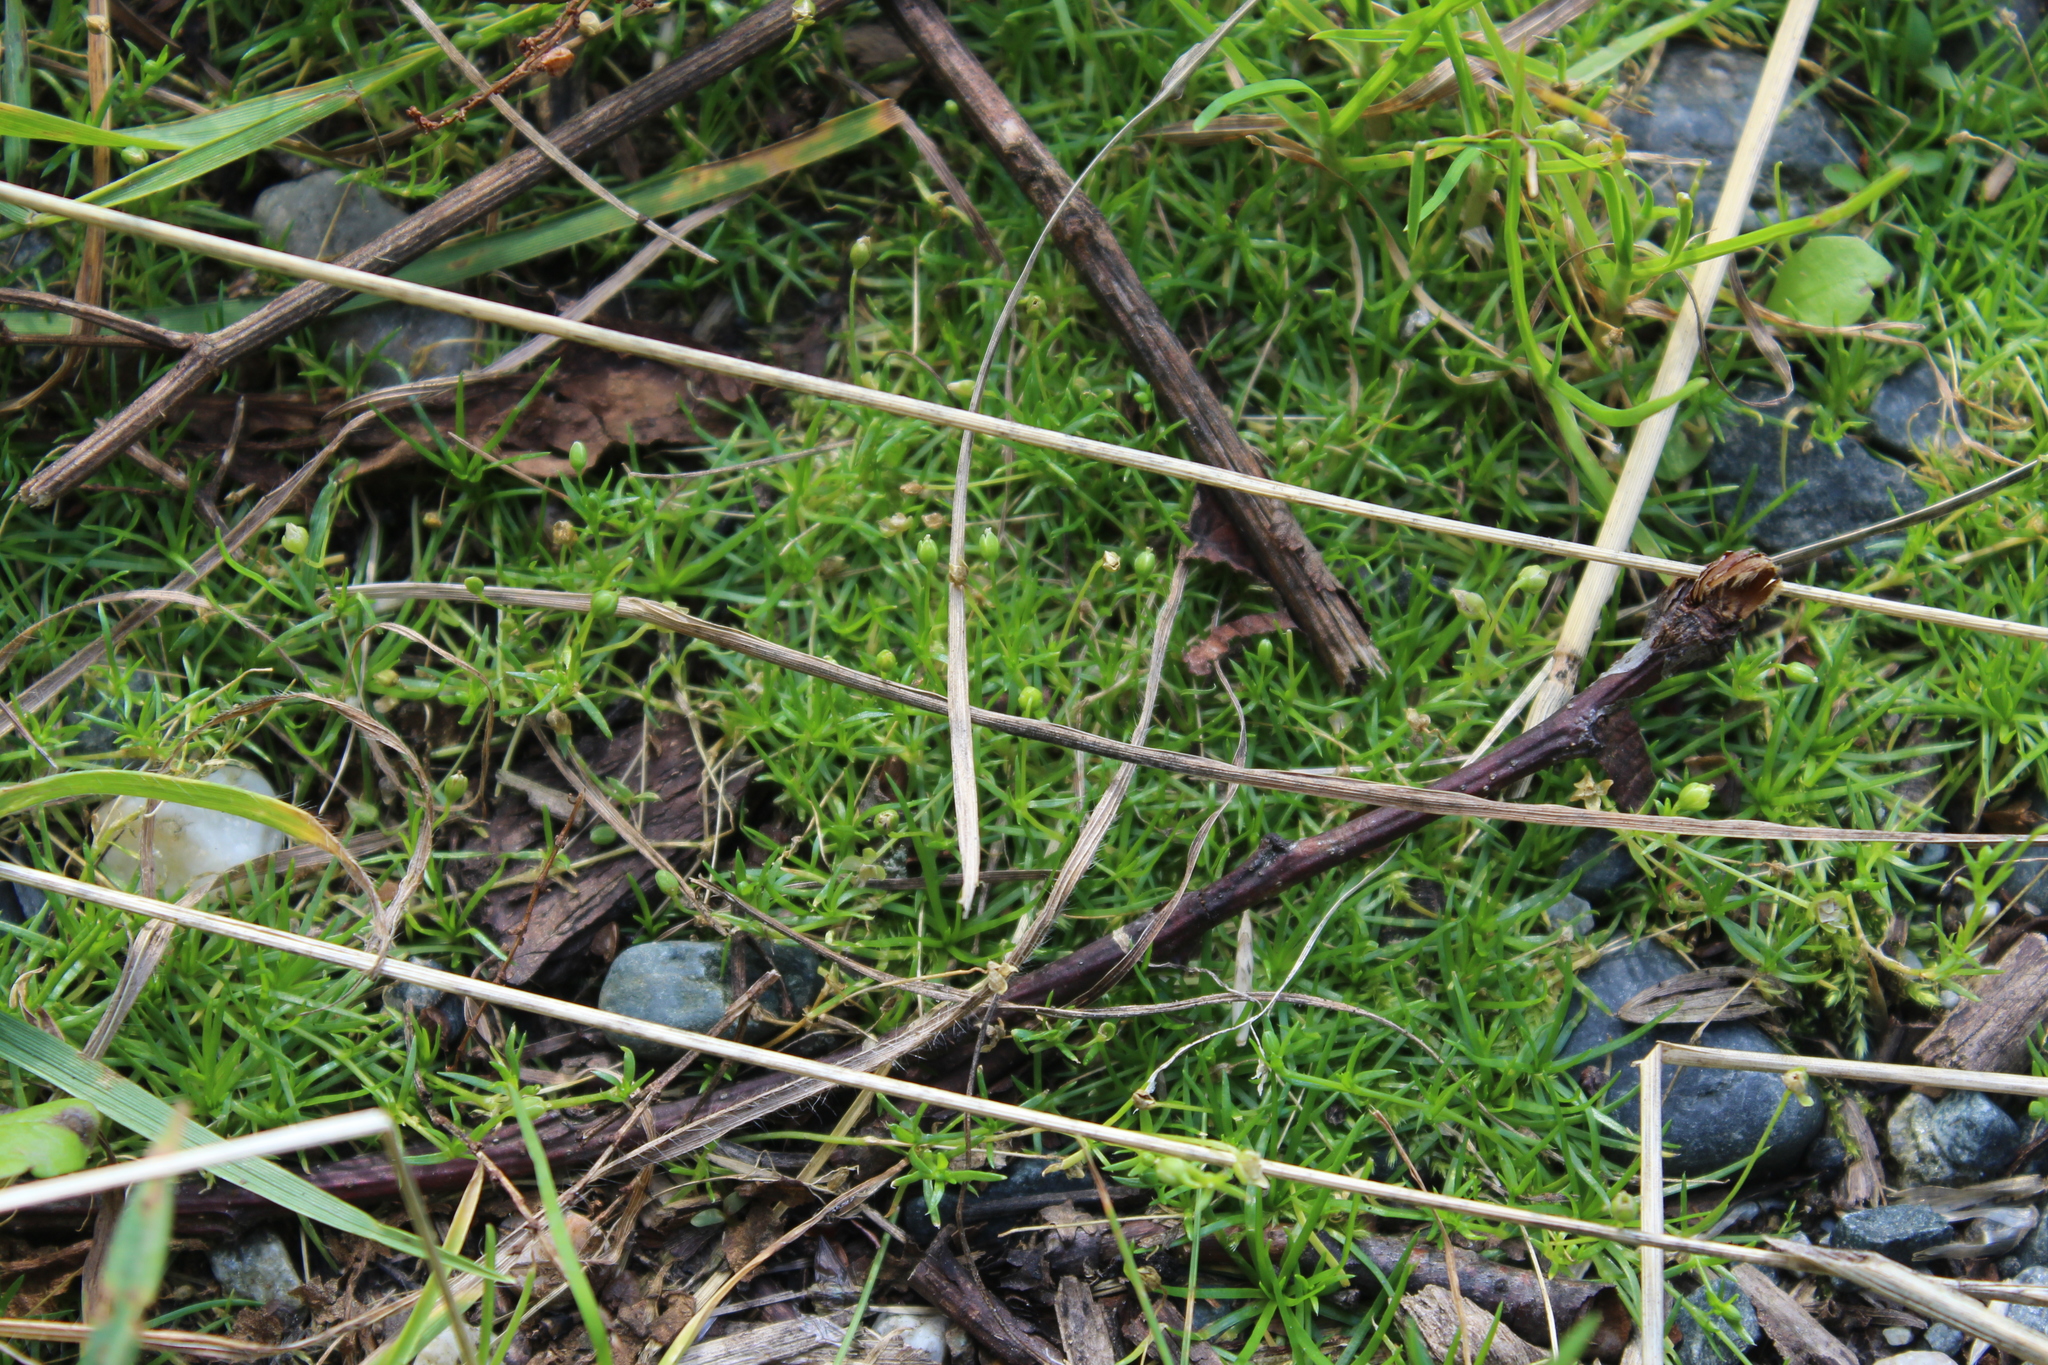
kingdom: Plantae
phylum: Tracheophyta
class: Magnoliopsida
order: Caryophyllales
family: Caryophyllaceae
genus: Sagina
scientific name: Sagina procumbens
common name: Procumbent pearlwort
